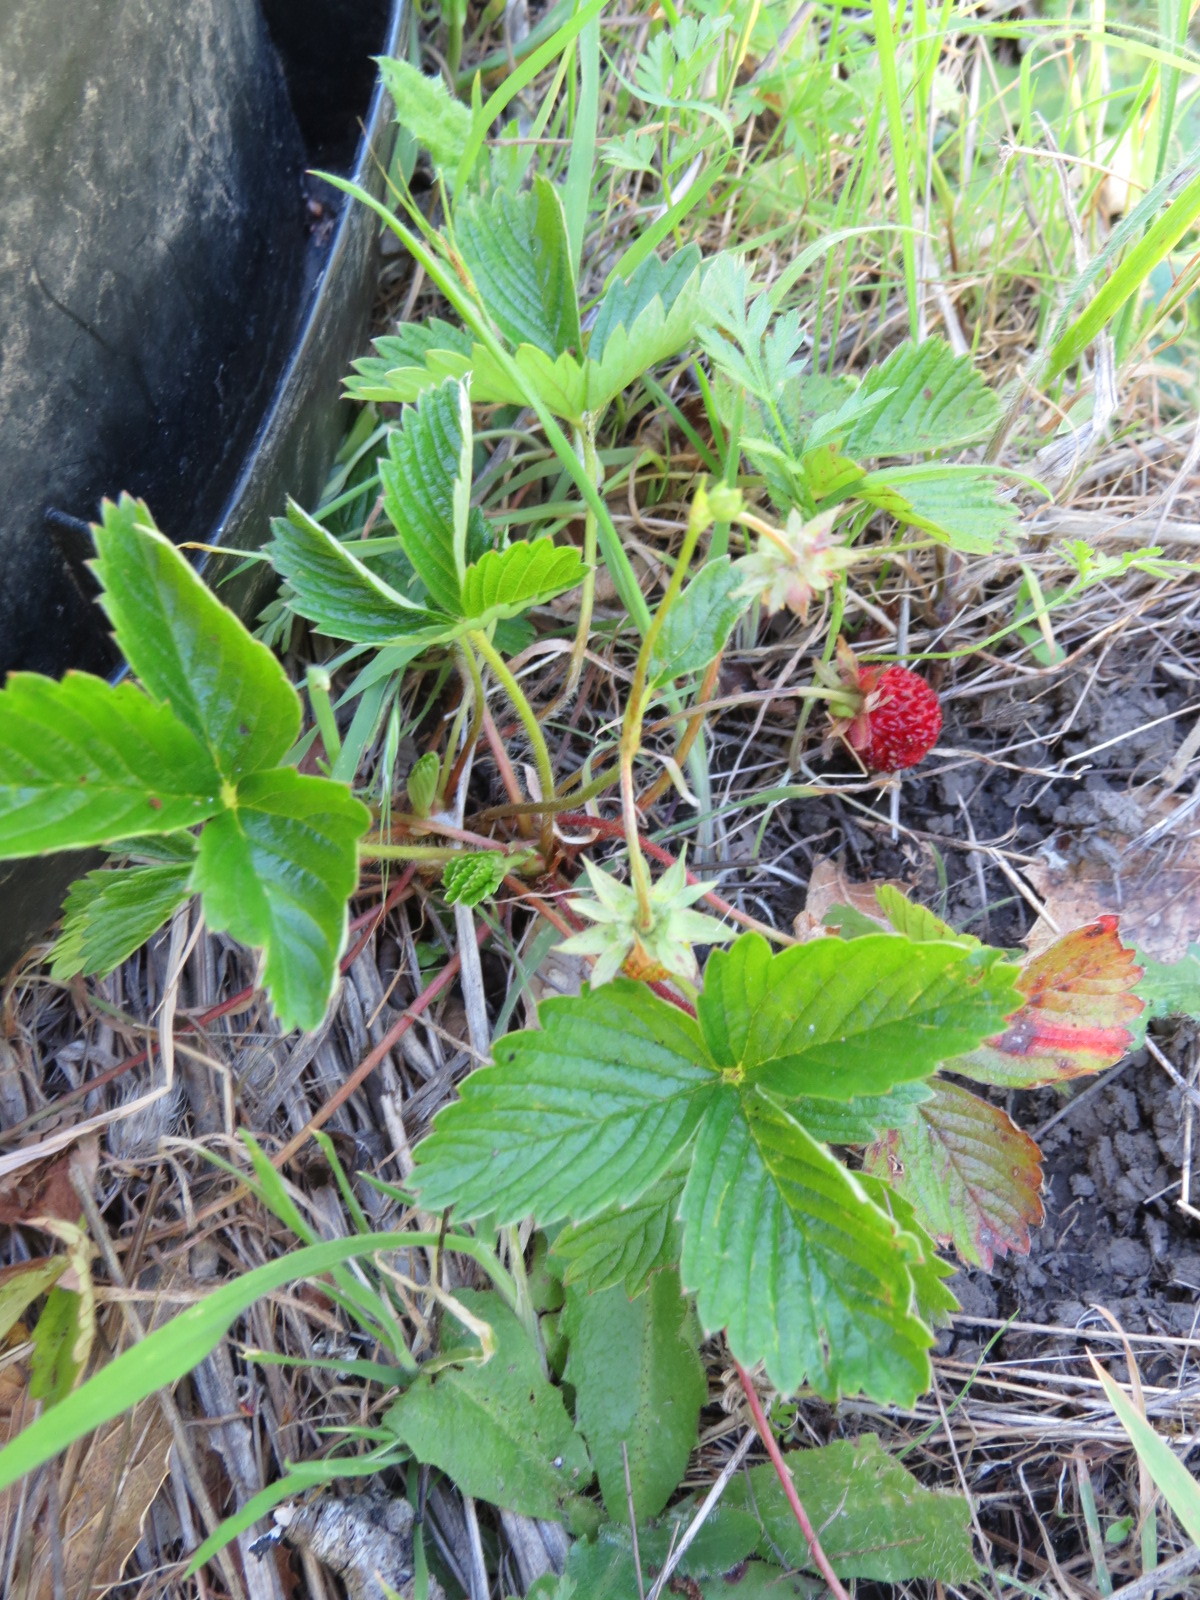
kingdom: Plantae
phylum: Tracheophyta
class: Magnoliopsida
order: Rosales
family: Rosaceae
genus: Fragaria
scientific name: Fragaria vesca
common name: Wild strawberry
